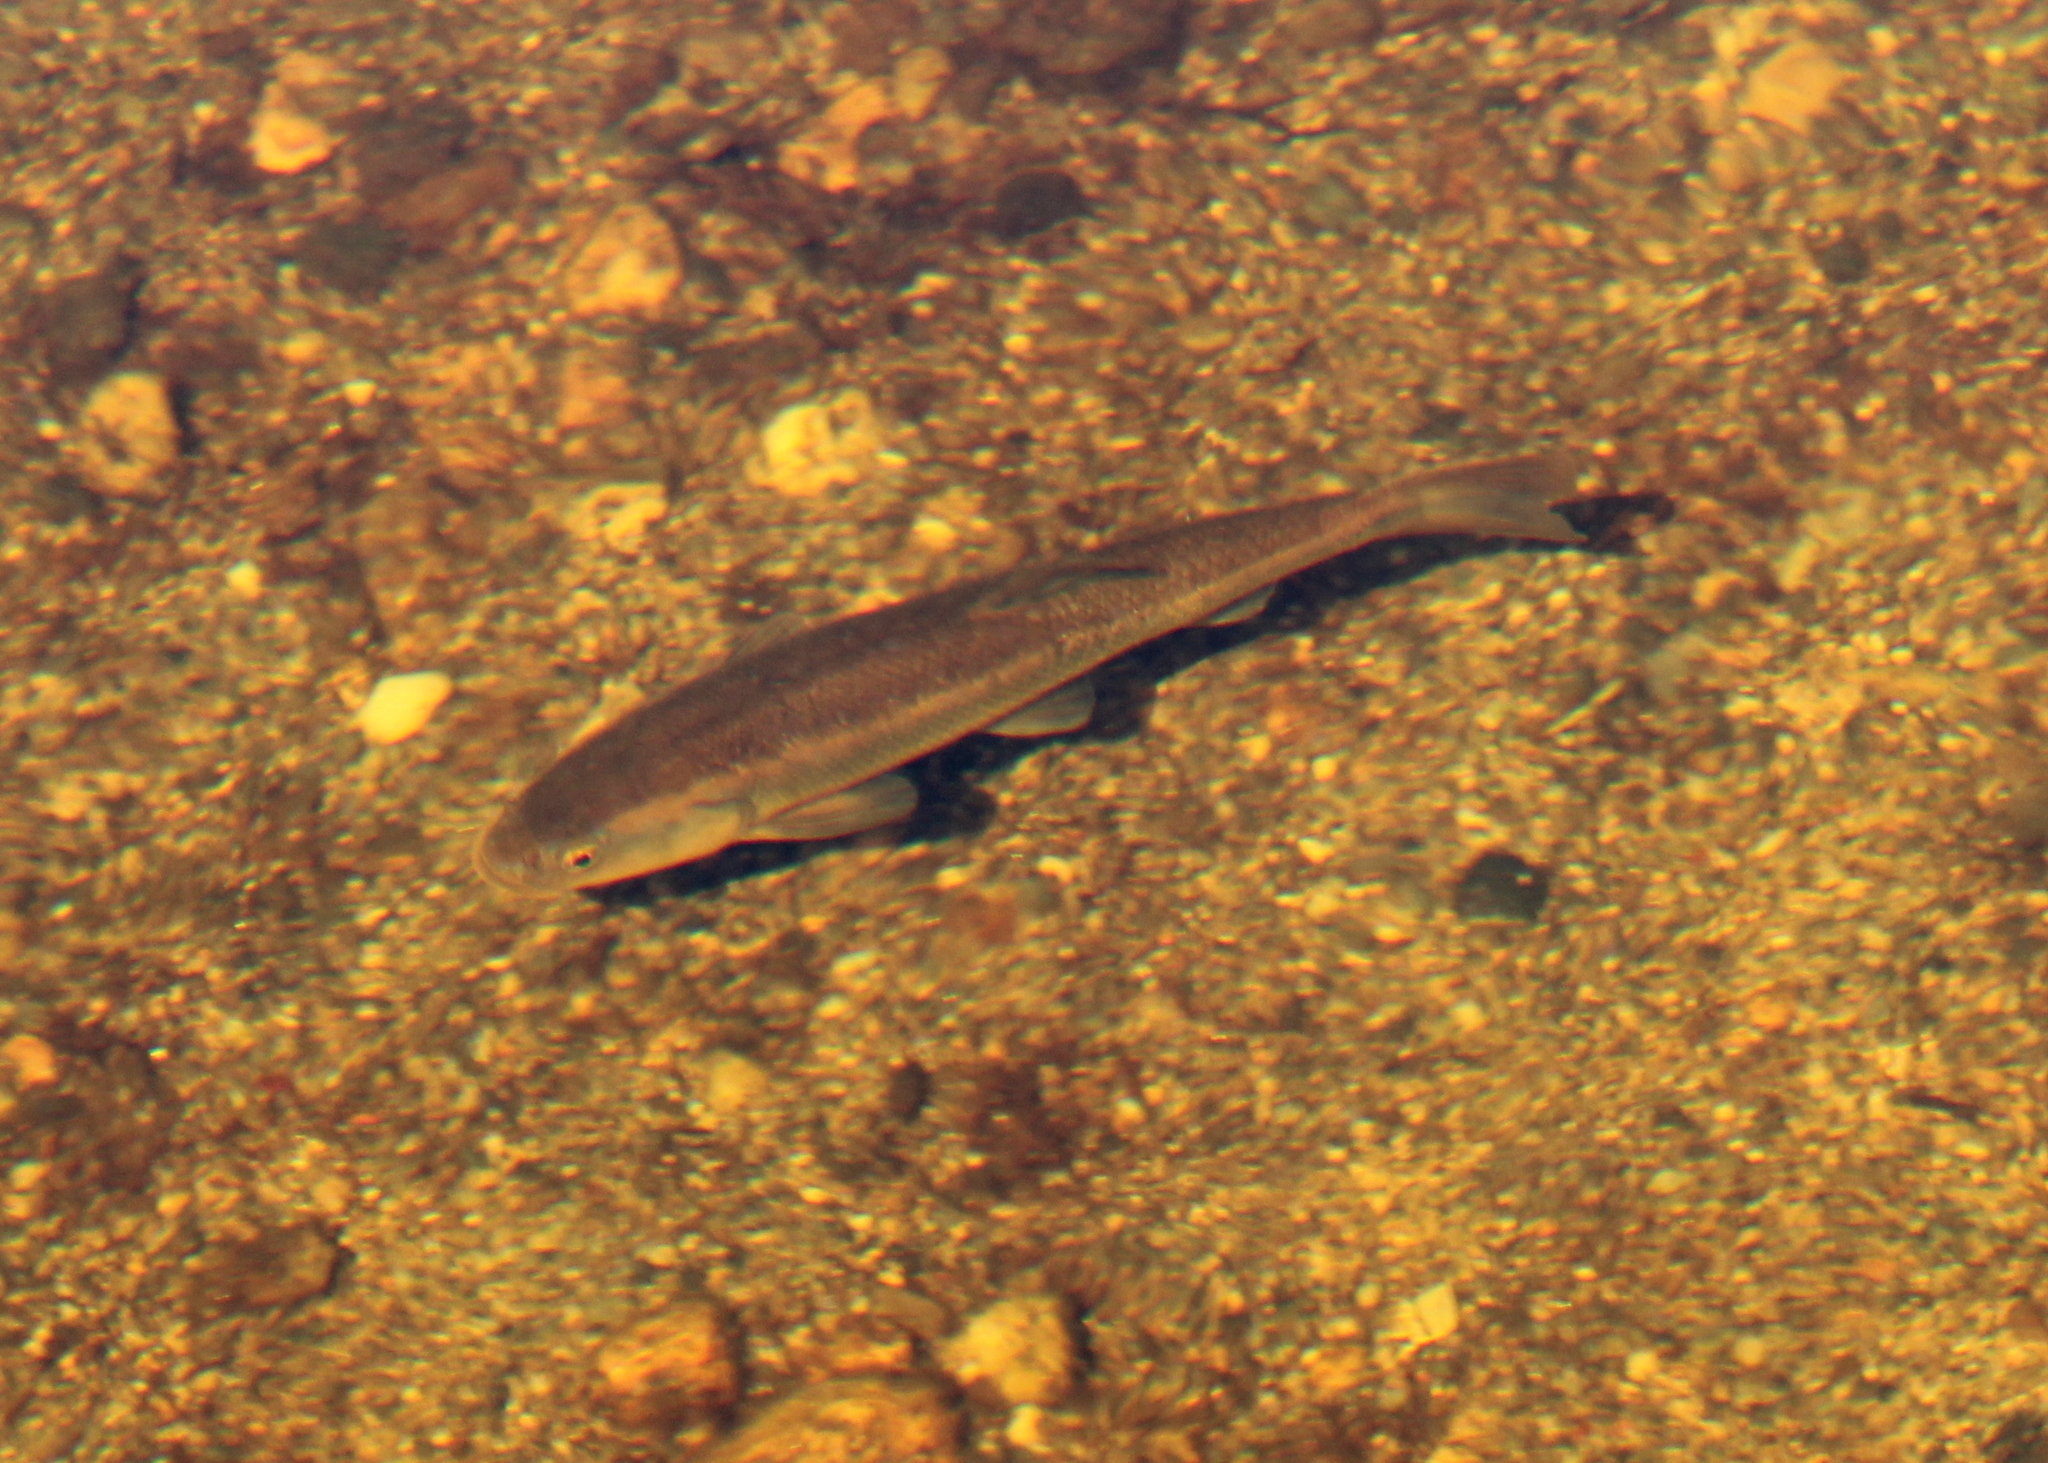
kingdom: Animalia
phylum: Chordata
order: Cypriniformes
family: Cyprinidae
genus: Semotilus
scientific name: Semotilus atromaculatus
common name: Creek chub
